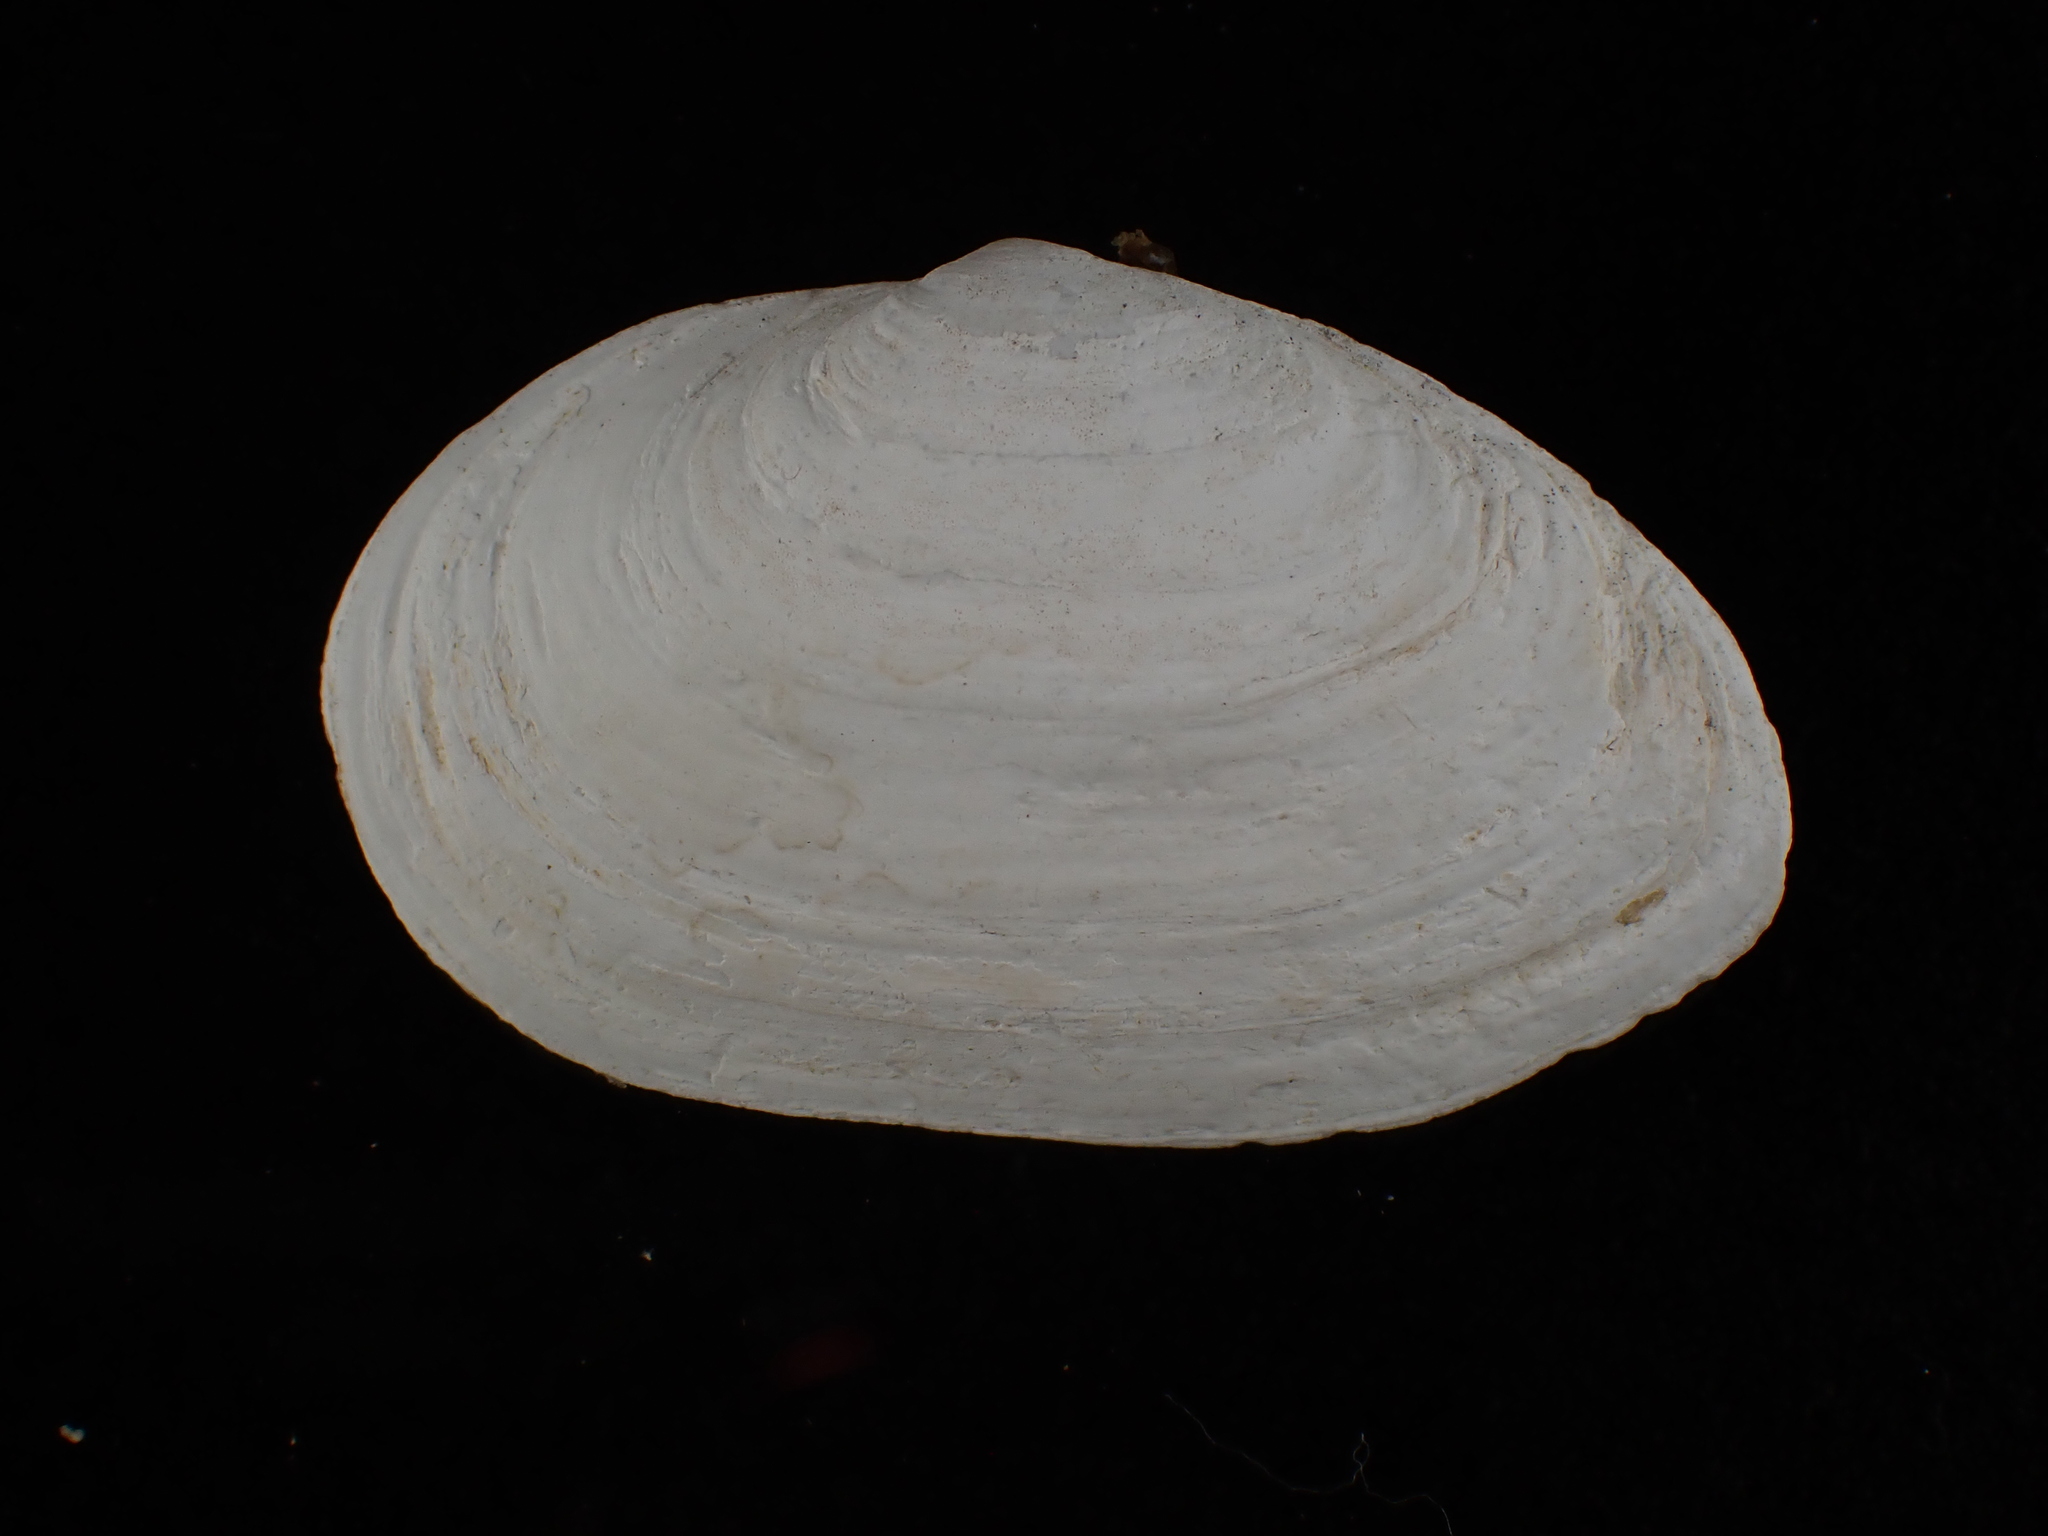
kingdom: Animalia
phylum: Mollusca
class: Bivalvia
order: Myida
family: Myidae
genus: Mya
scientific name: Mya arenaria
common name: Soft-shelled clam
